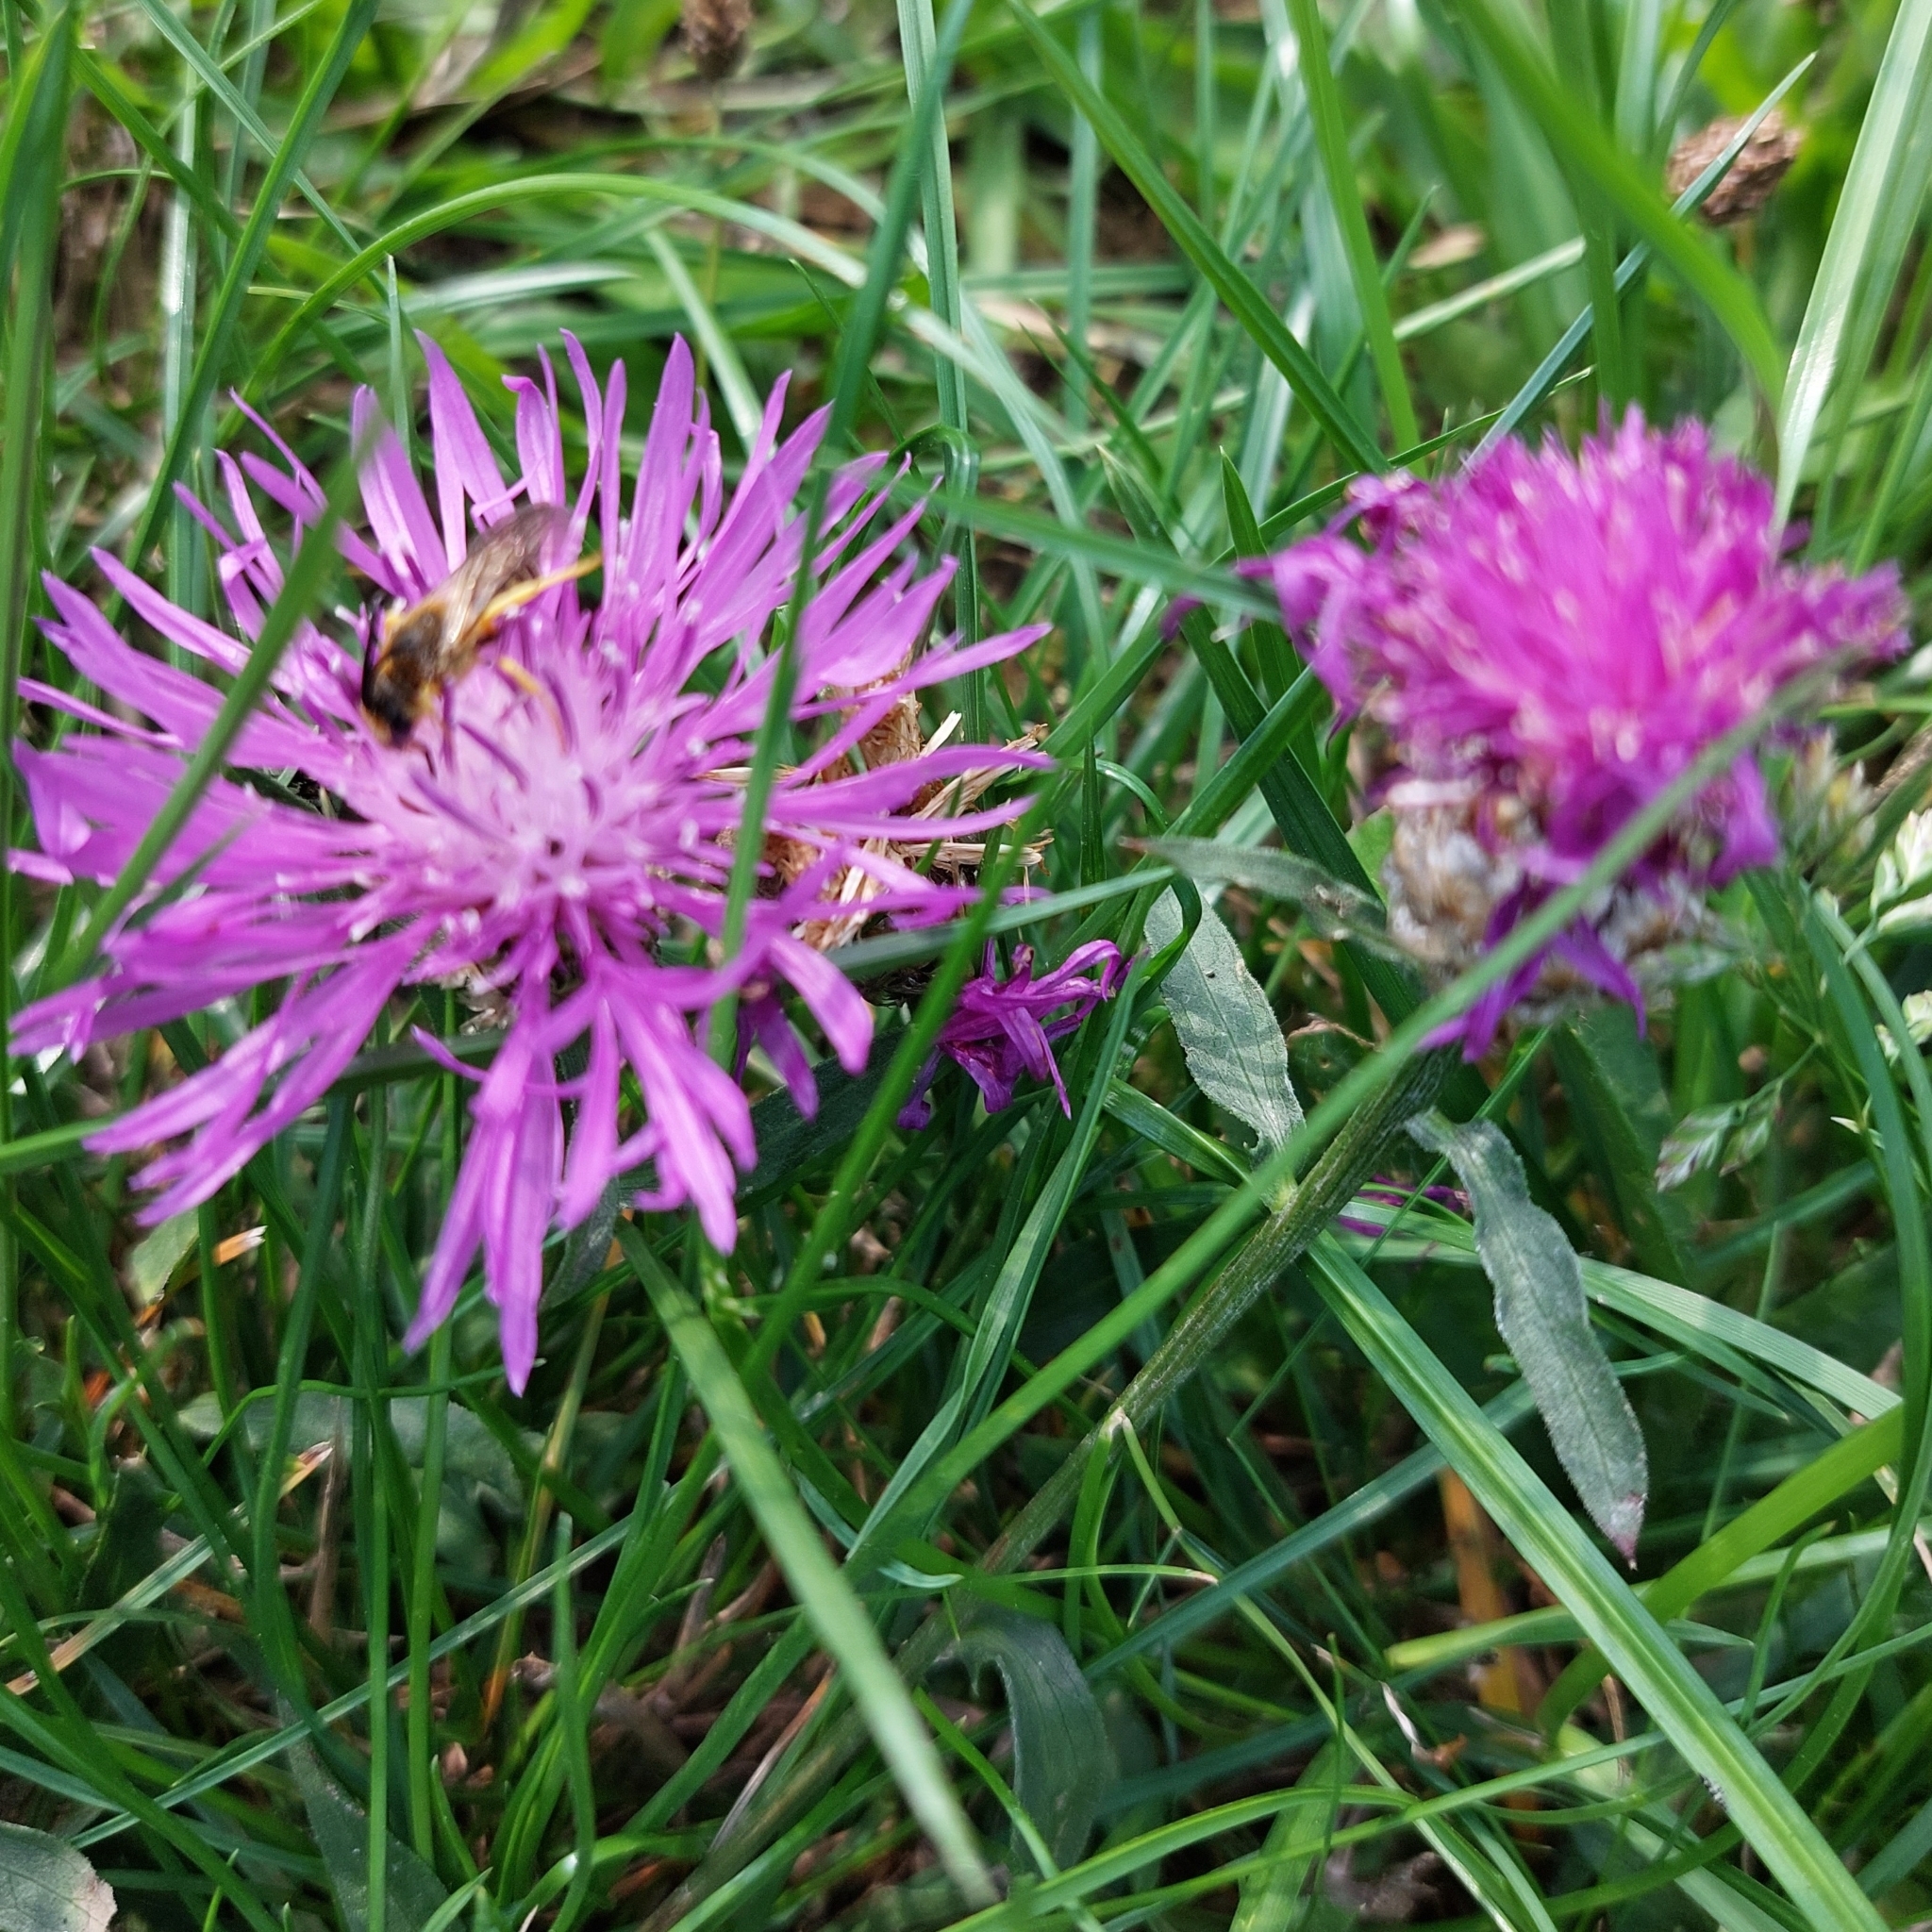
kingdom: Plantae
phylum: Tracheophyta
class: Magnoliopsida
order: Asterales
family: Asteraceae
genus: Centaurea
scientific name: Centaurea jacea
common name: Brown knapweed
